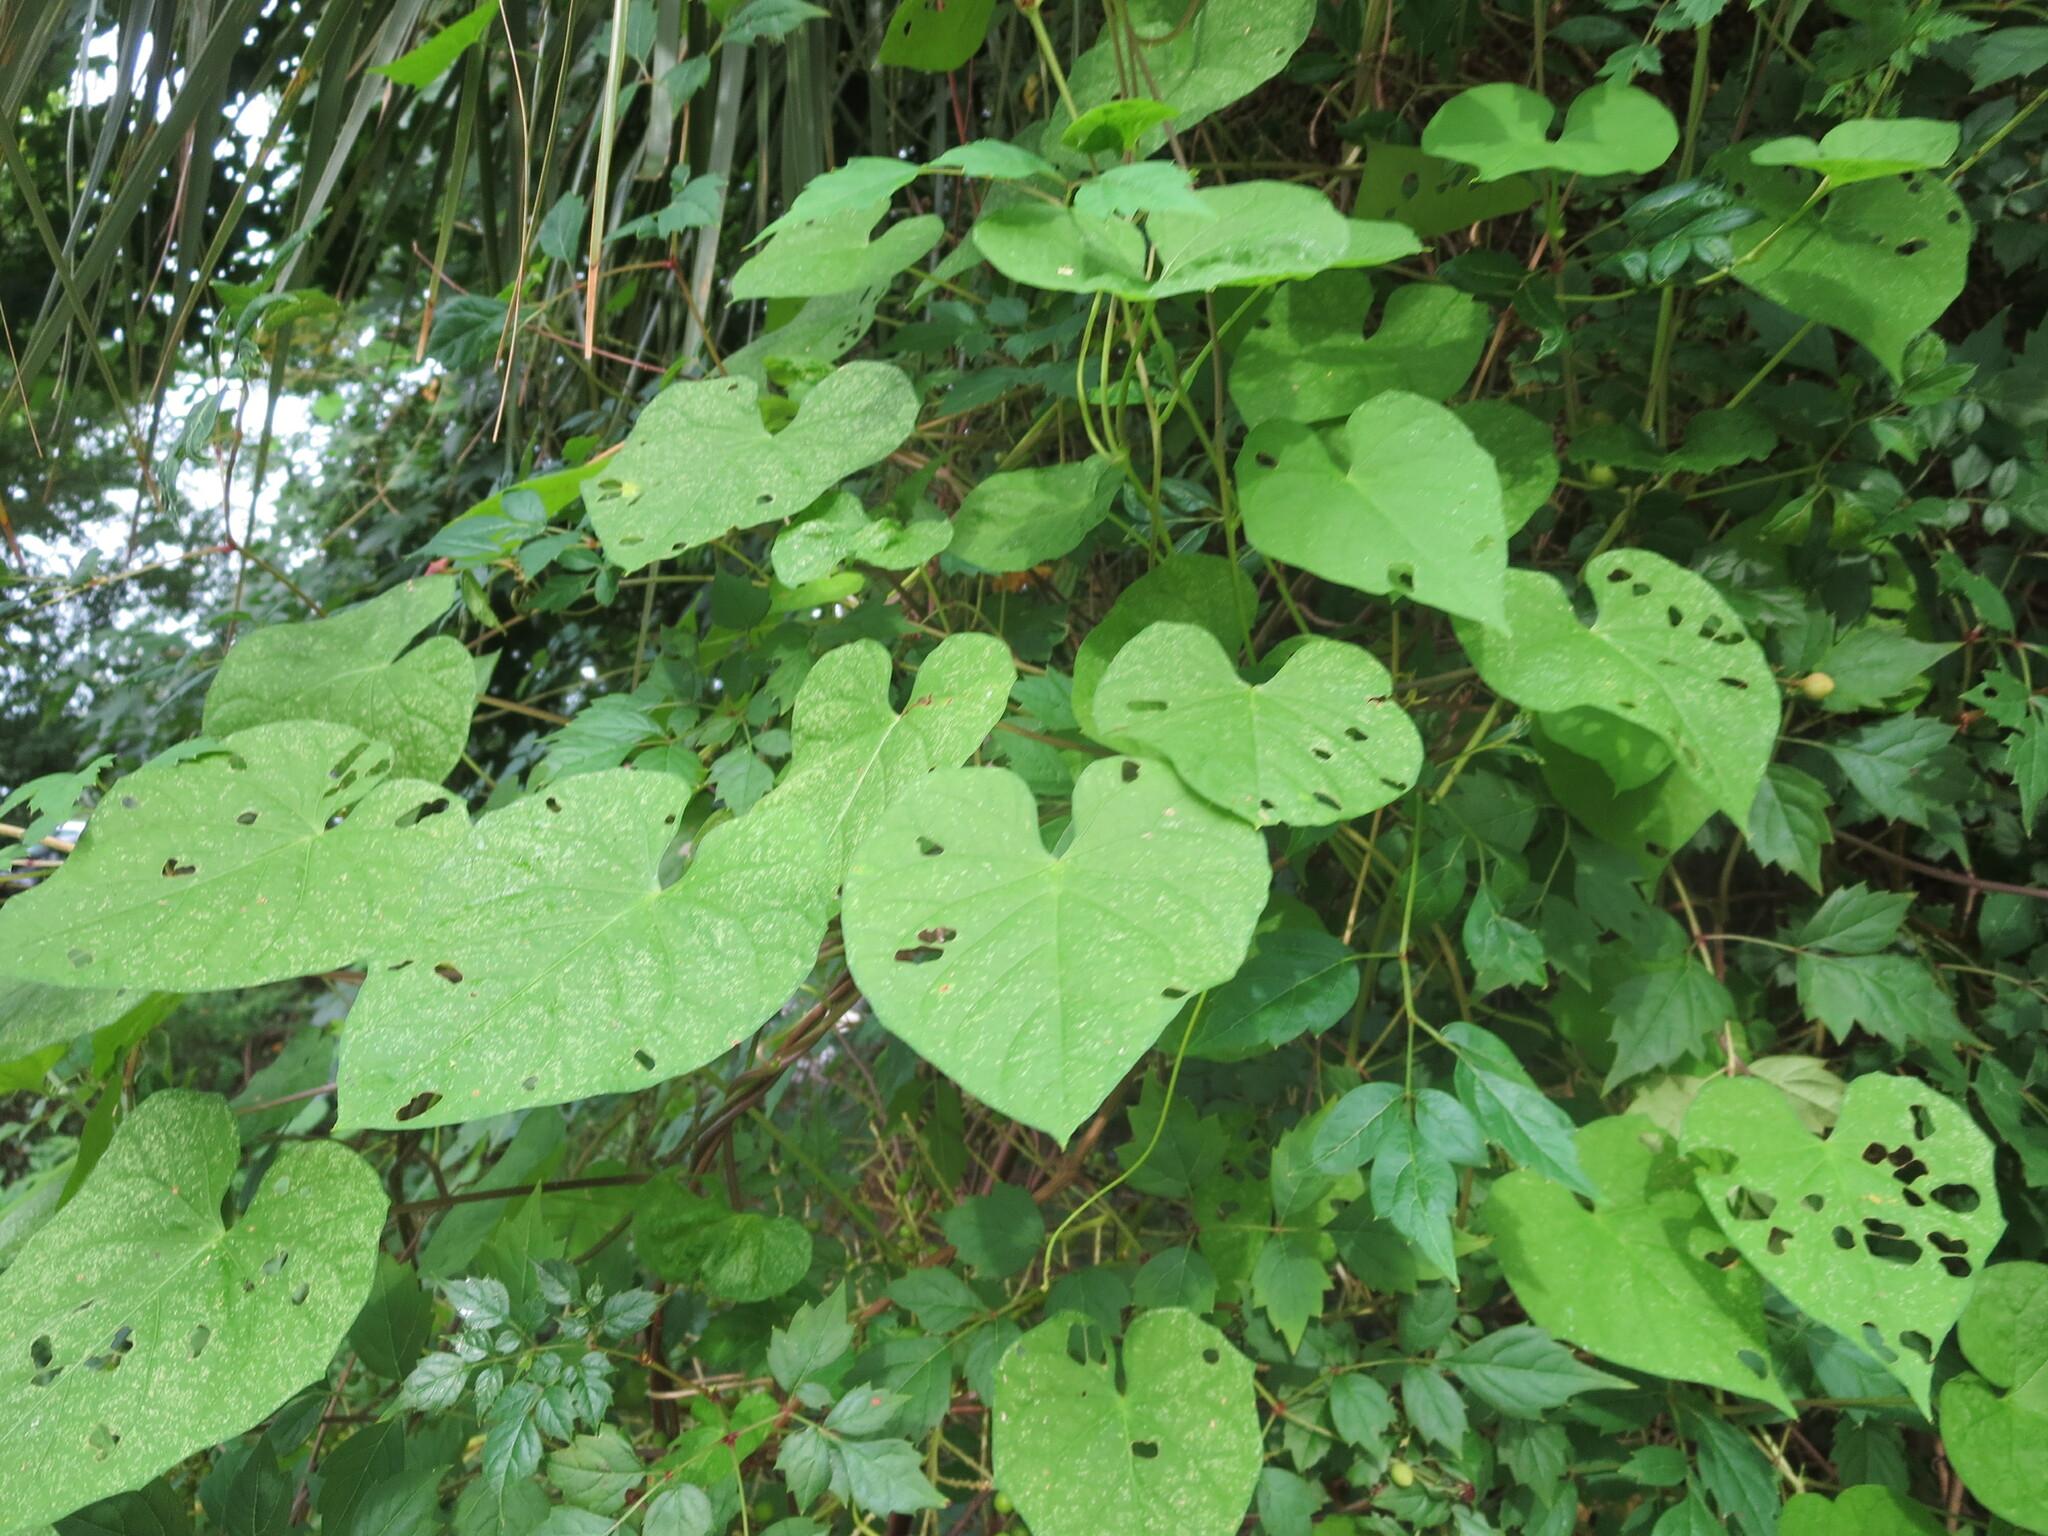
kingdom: Plantae
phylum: Tracheophyta
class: Magnoliopsida
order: Solanales
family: Convolvulaceae
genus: Ipomoea
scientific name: Ipomoea pandurata
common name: Man-of-the-earth
